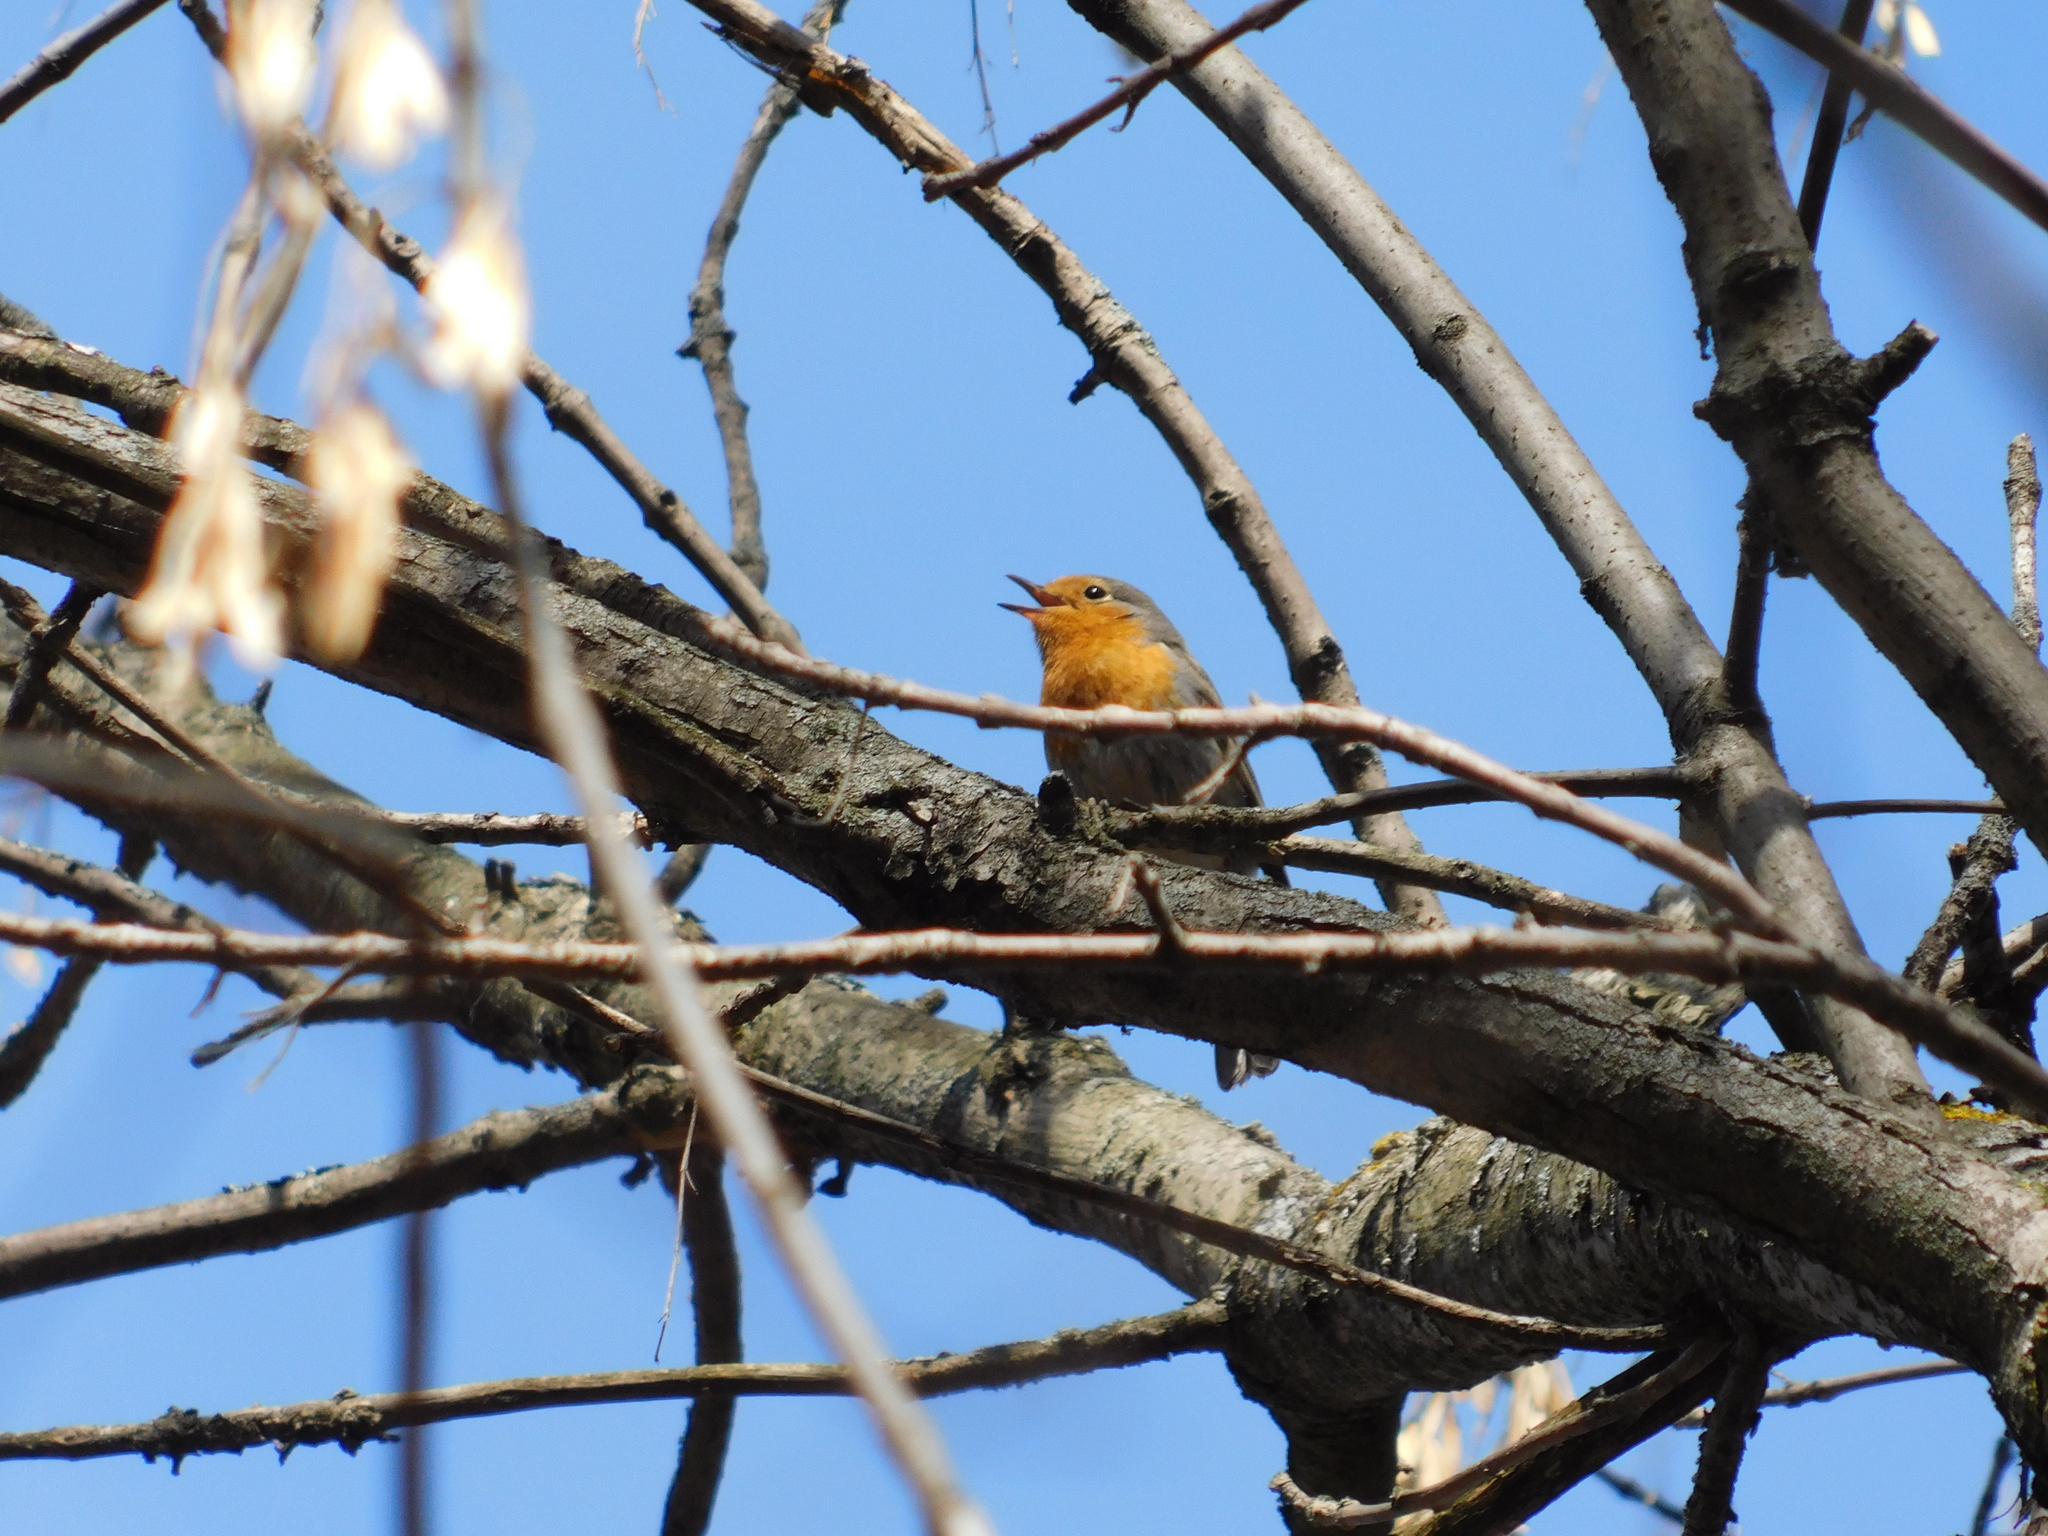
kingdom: Animalia
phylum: Chordata
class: Aves
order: Passeriformes
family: Muscicapidae
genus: Erithacus
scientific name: Erithacus rubecula
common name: European robin
